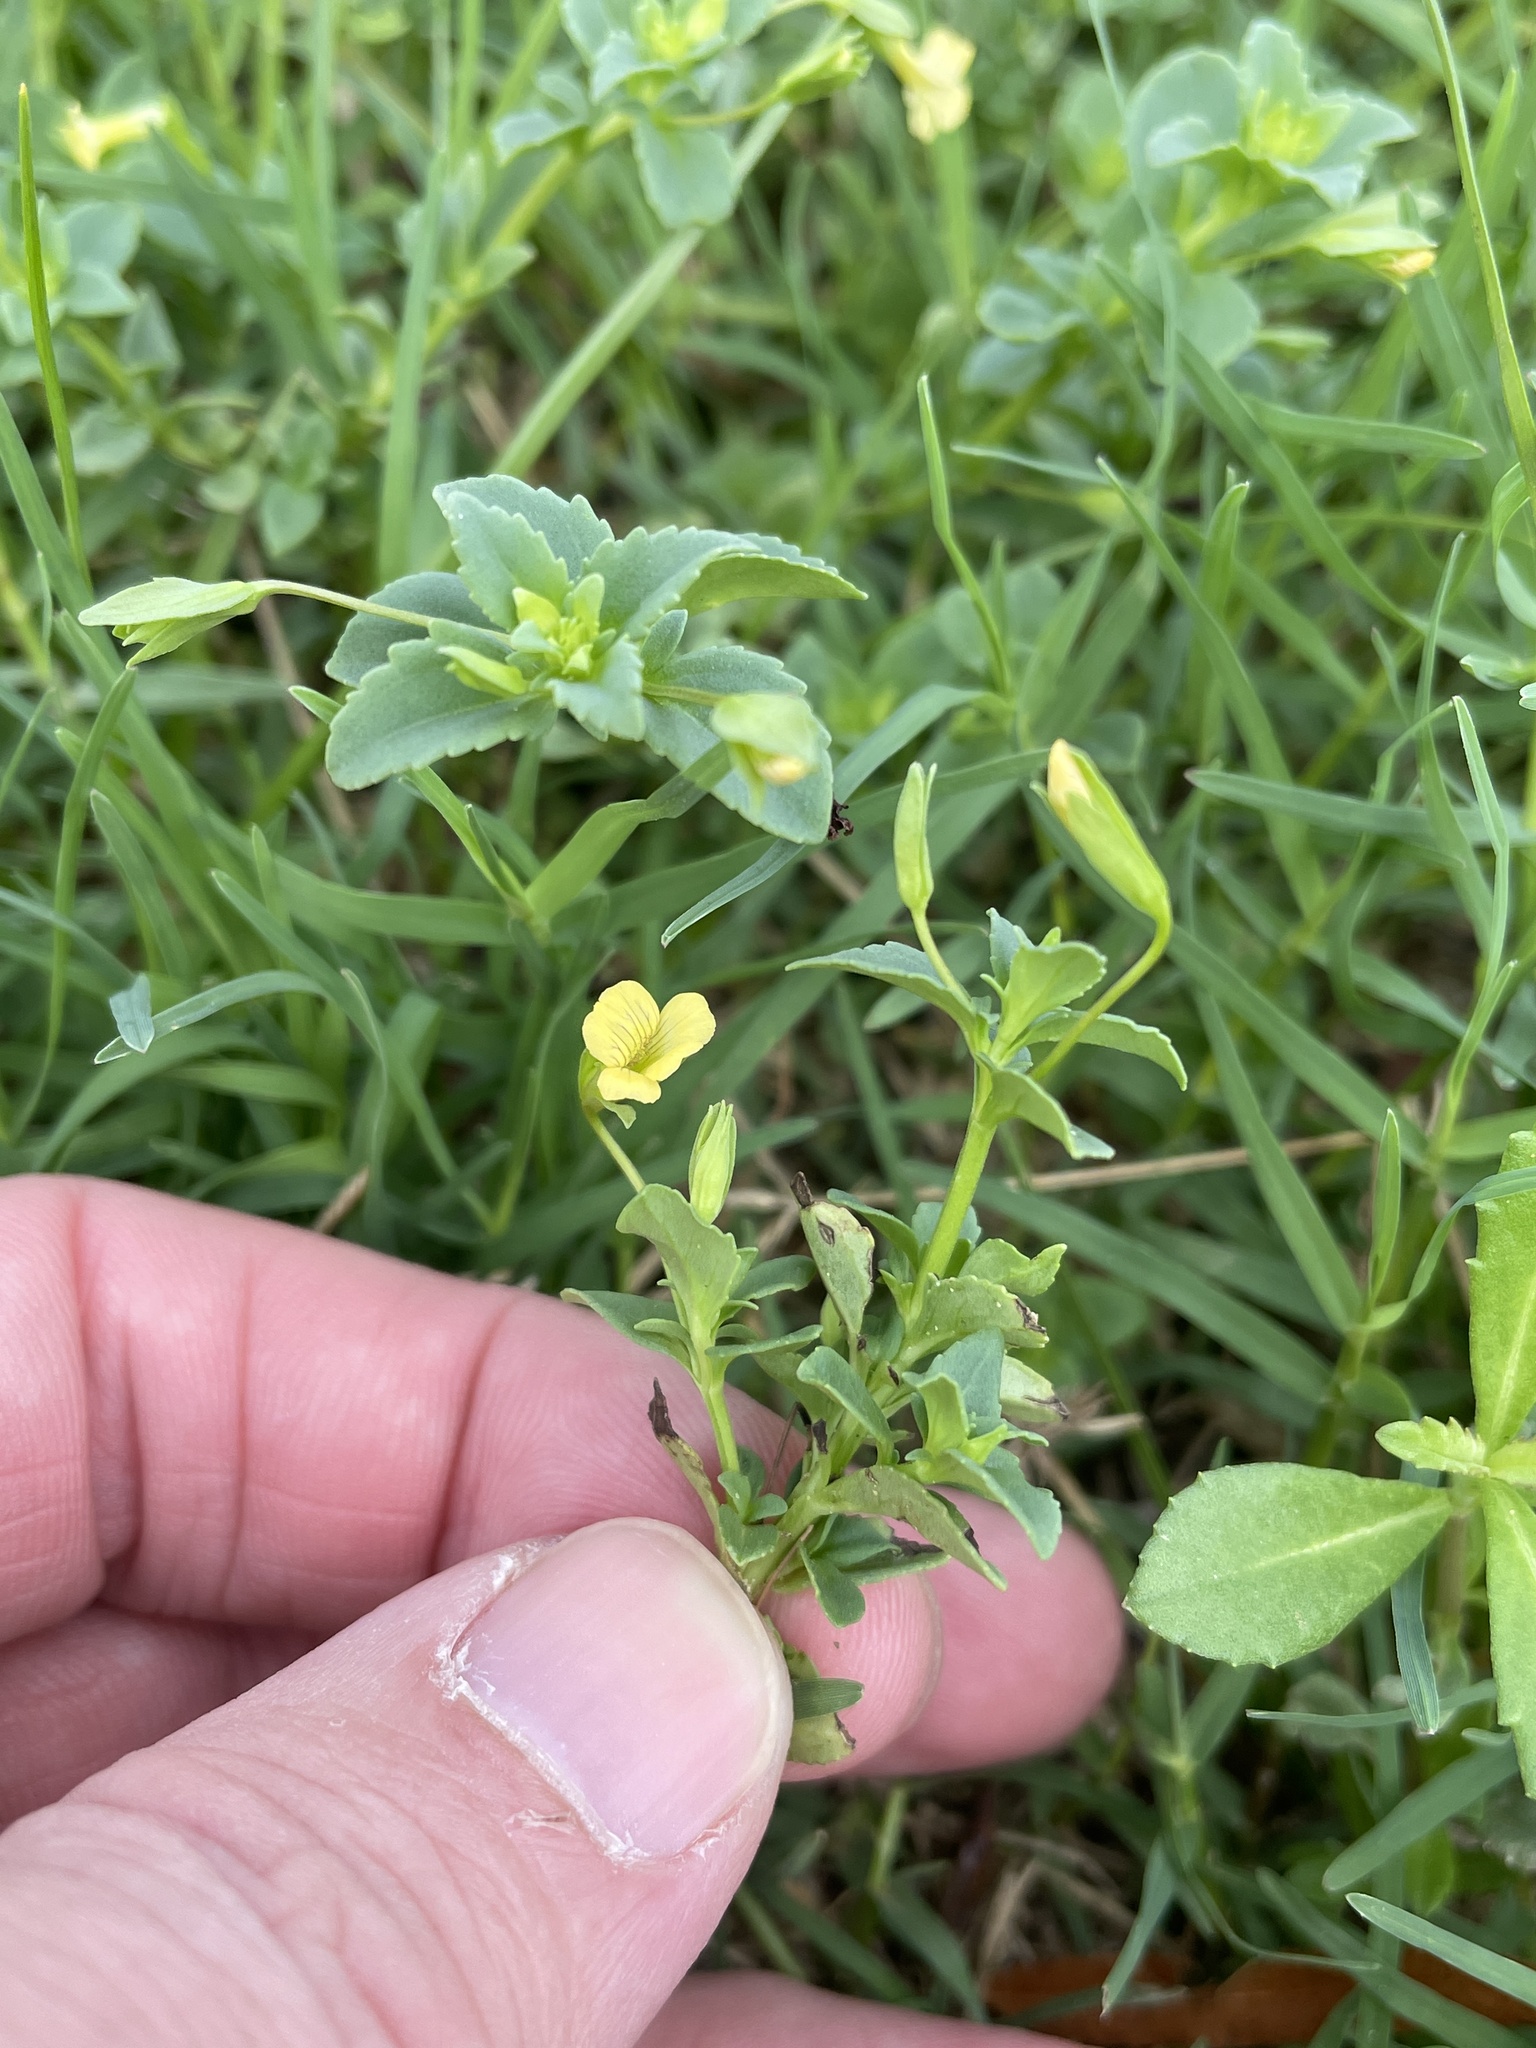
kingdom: Plantae
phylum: Tracheophyta
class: Magnoliopsida
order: Lamiales
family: Plantaginaceae
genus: Mecardonia
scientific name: Mecardonia procumbens
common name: Baby jump-up
